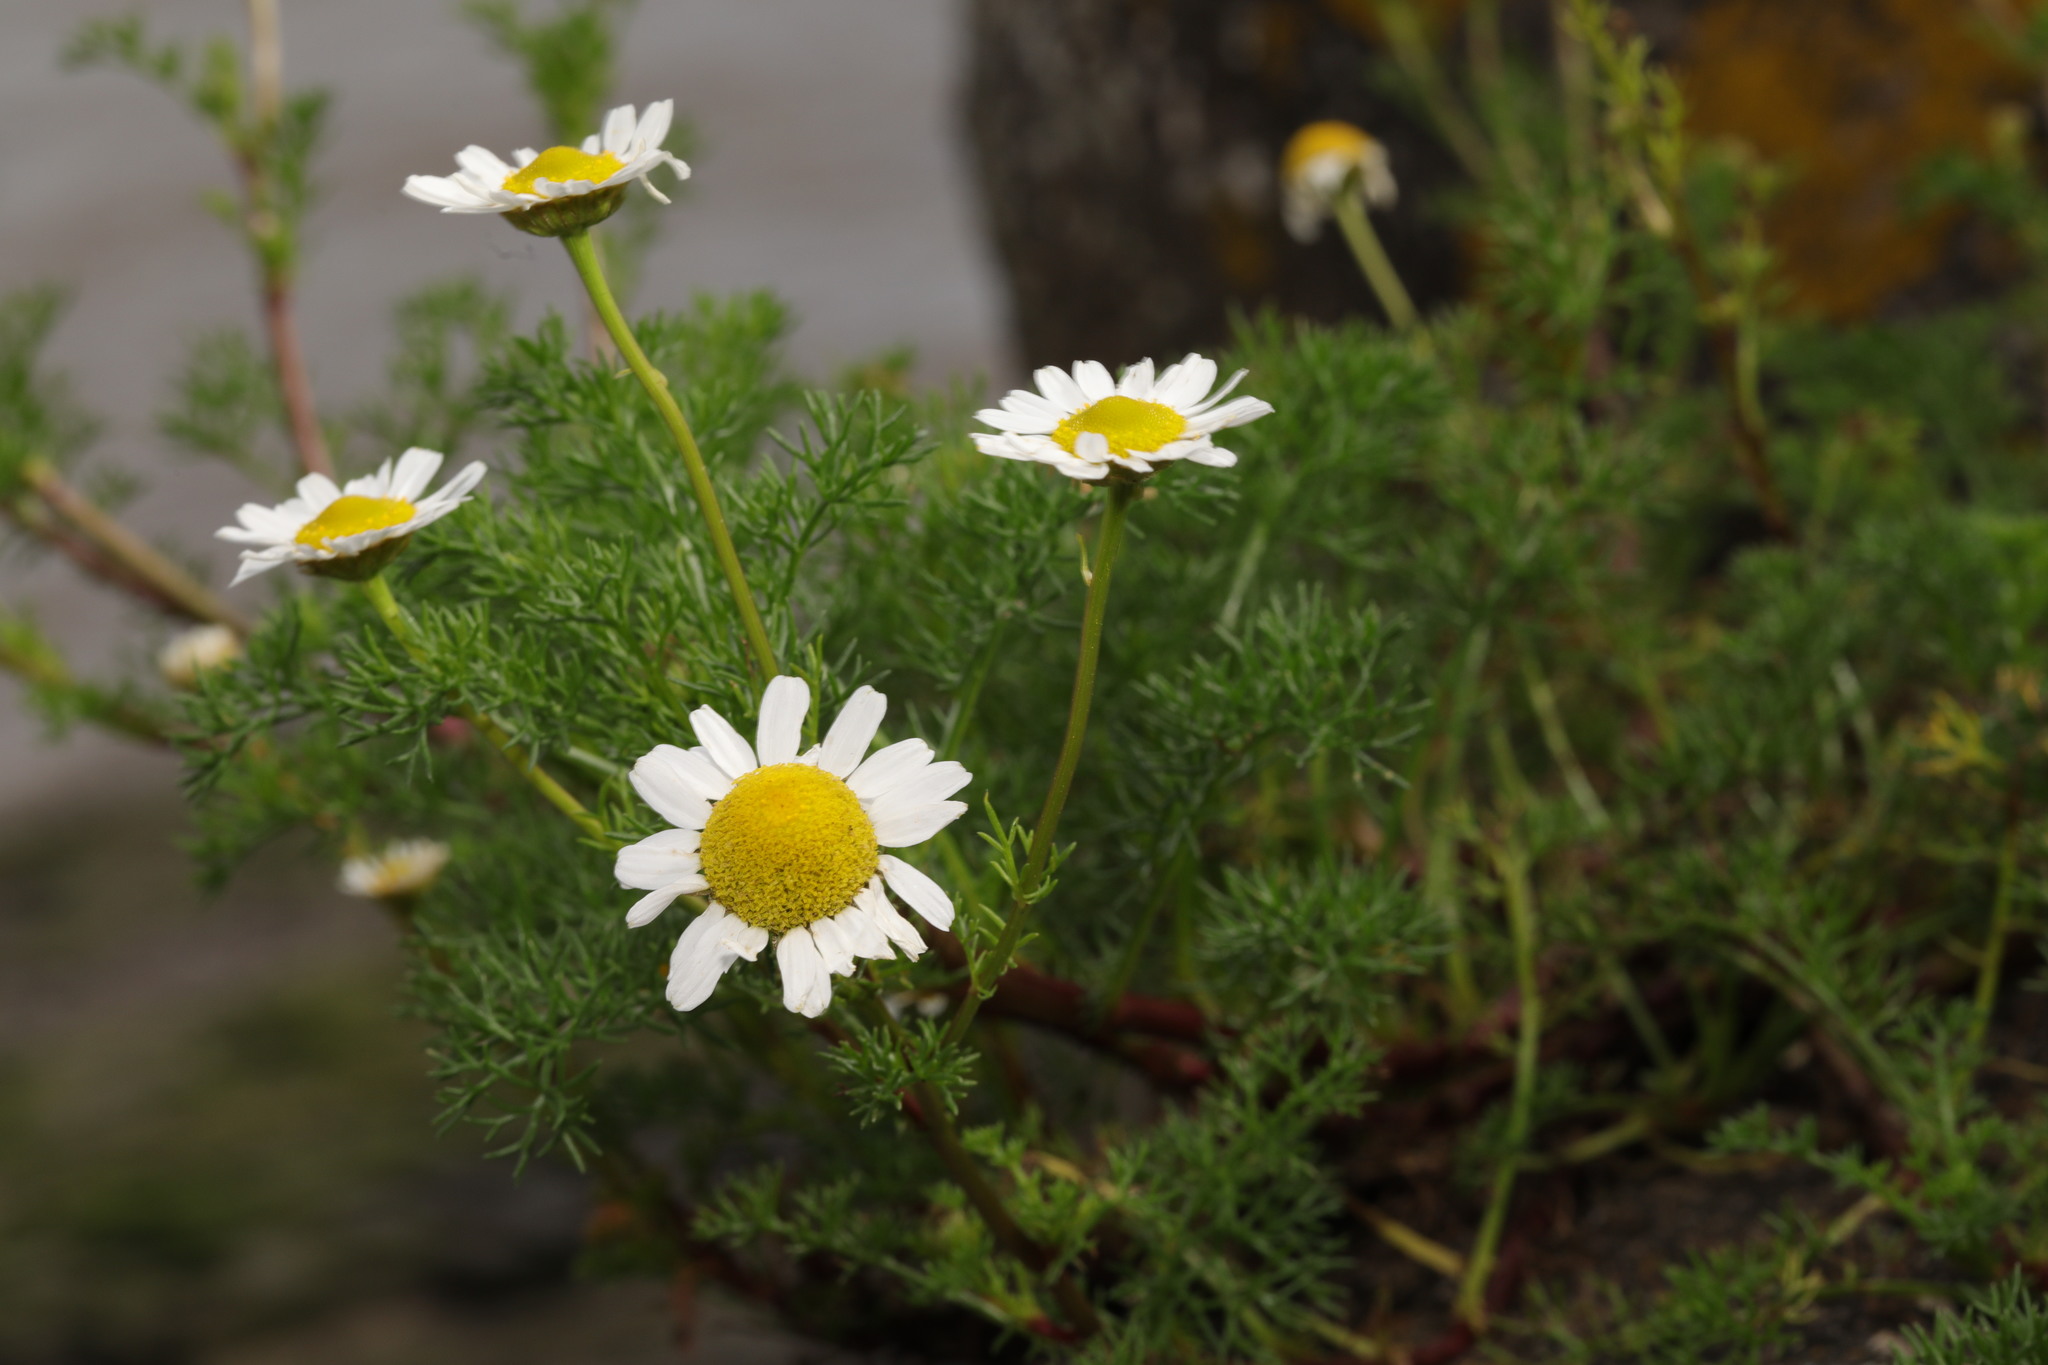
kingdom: Plantae
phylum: Tracheophyta
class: Magnoliopsida
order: Asterales
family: Asteraceae
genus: Tripleurospermum
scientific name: Tripleurospermum maritimum
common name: Sea mayweed
